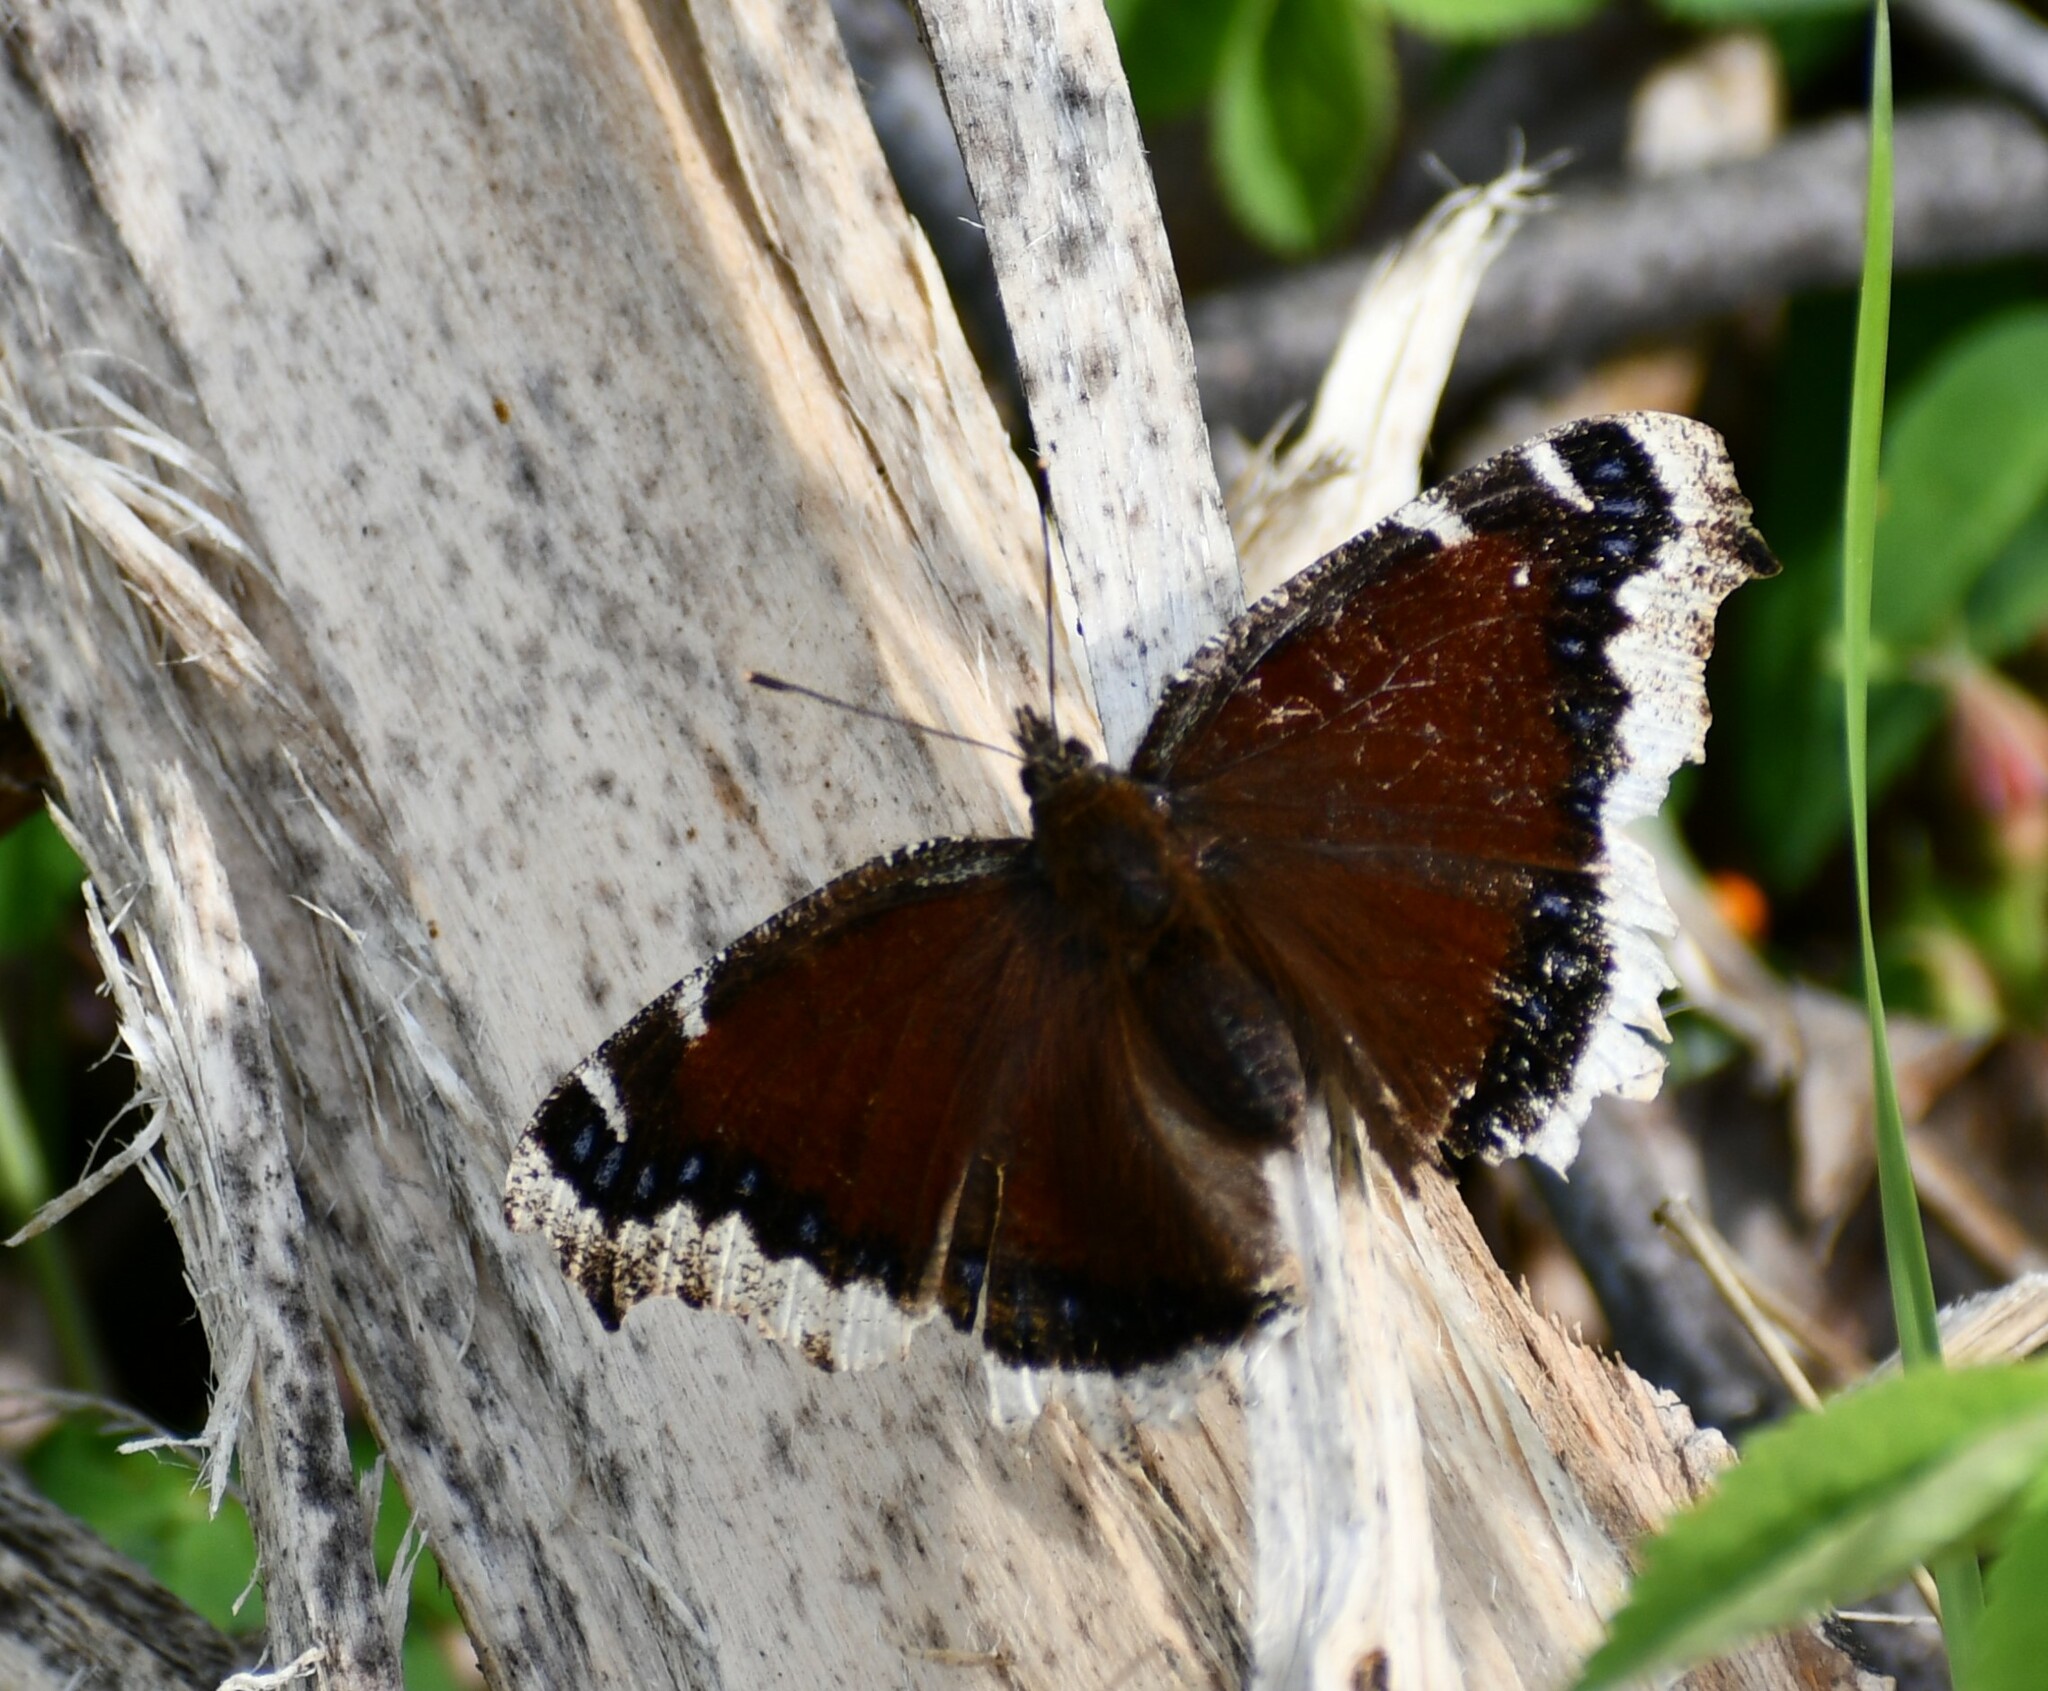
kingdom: Animalia
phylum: Arthropoda
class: Insecta
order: Lepidoptera
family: Nymphalidae
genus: Nymphalis
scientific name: Nymphalis antiopa
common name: Camberwell beauty
